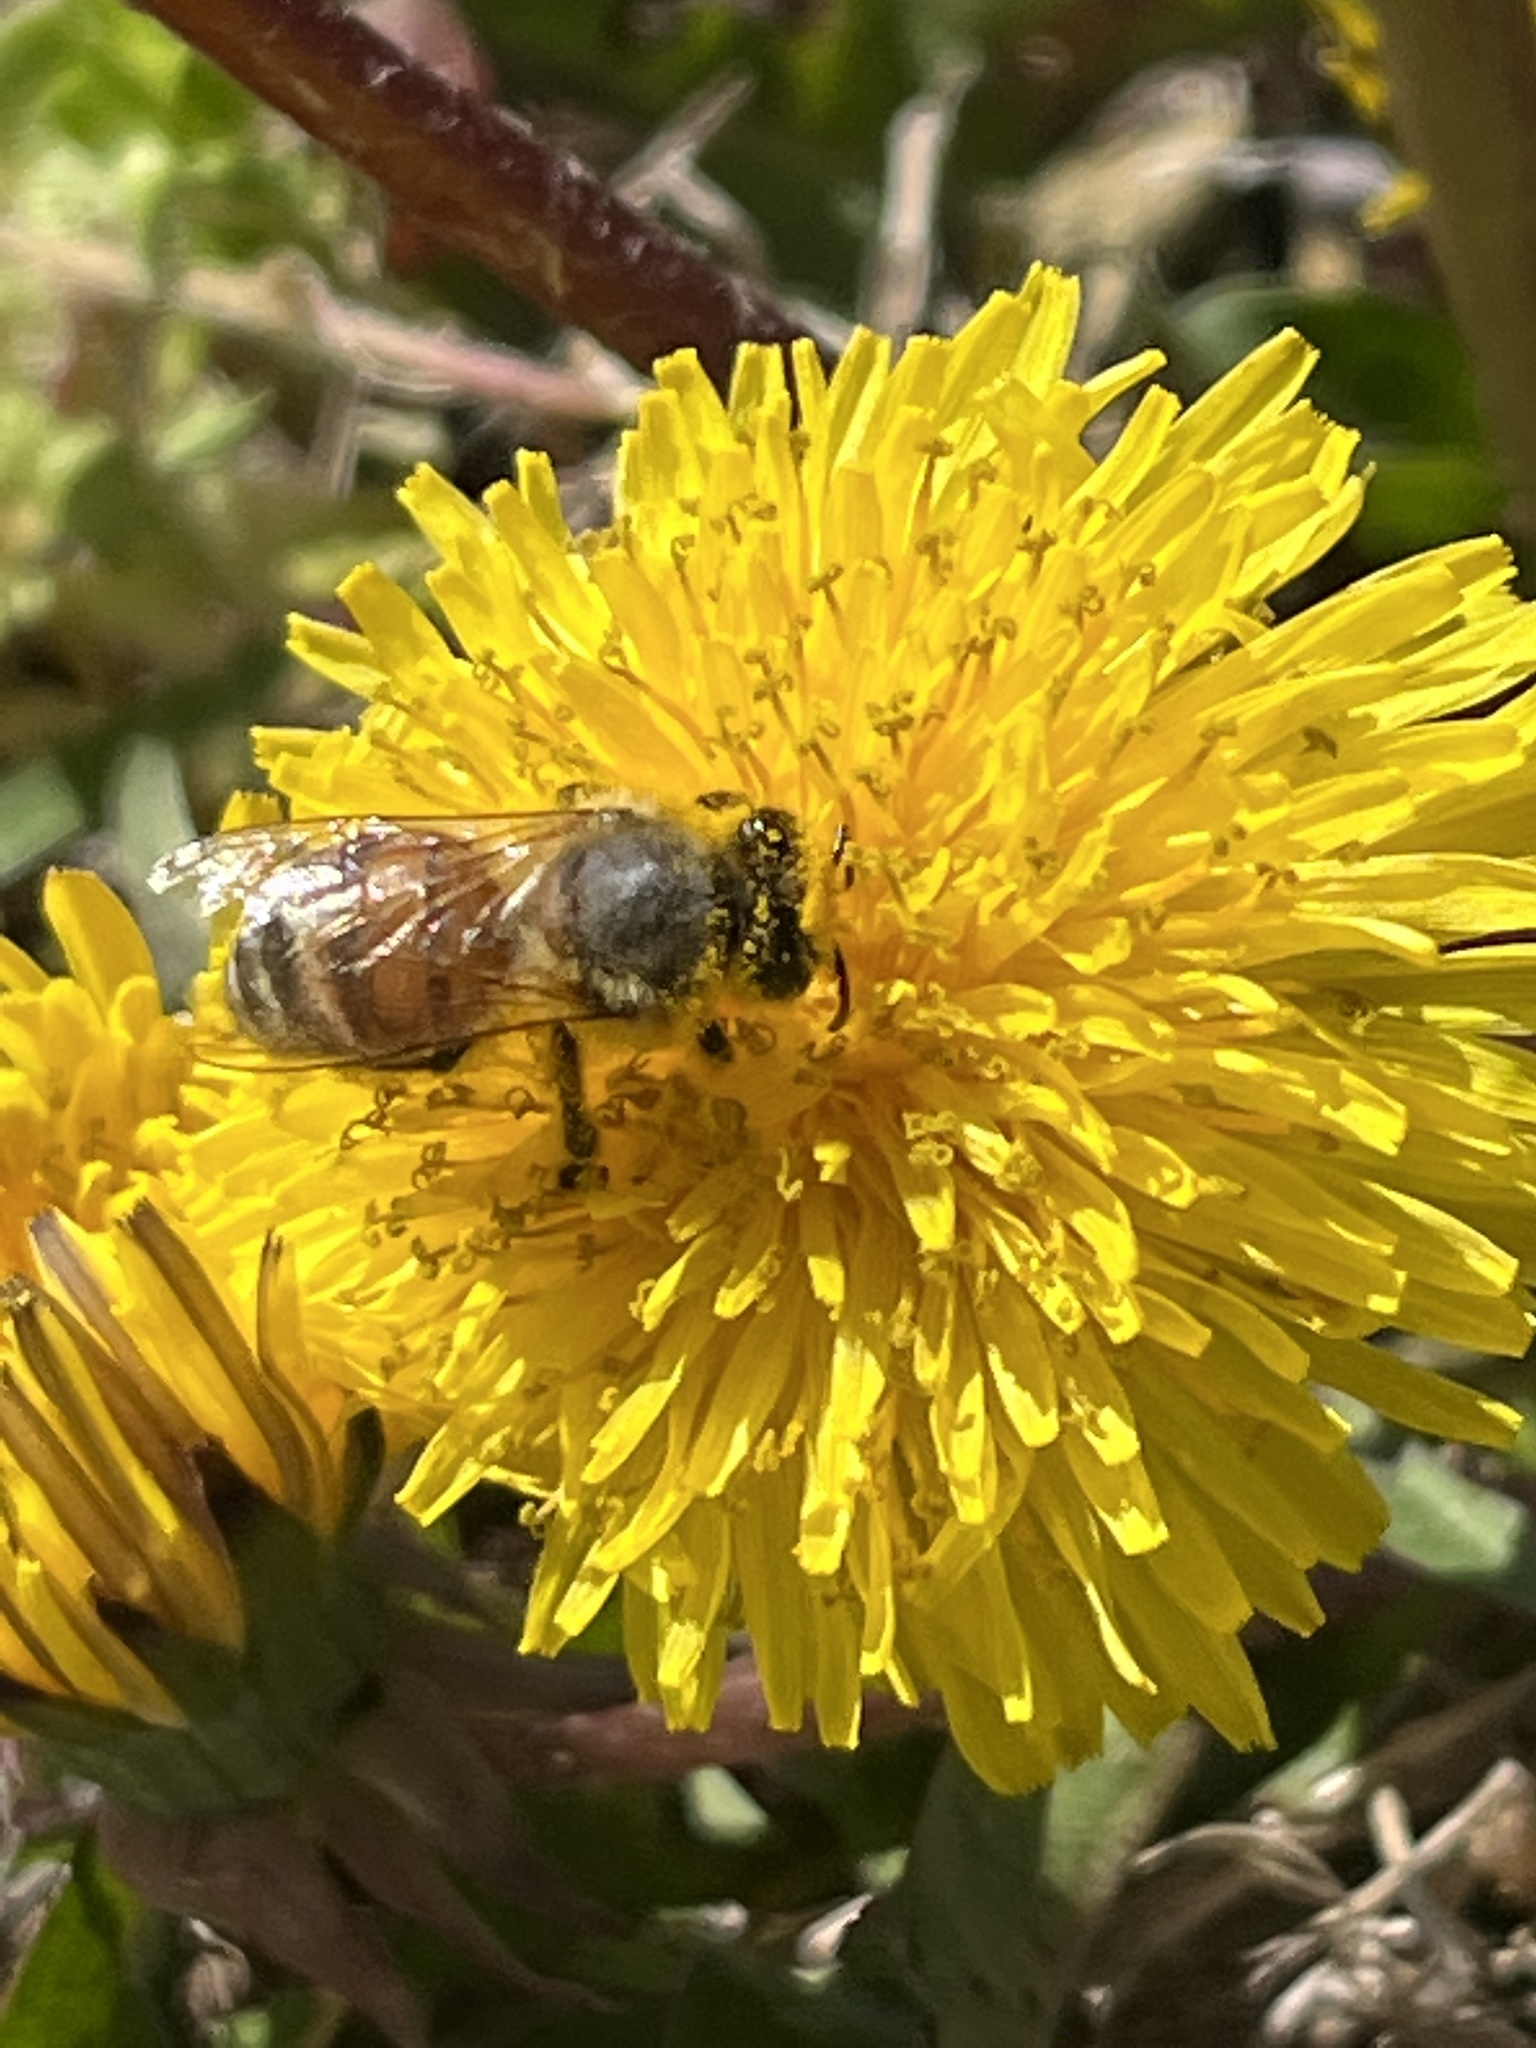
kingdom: Animalia
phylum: Arthropoda
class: Insecta
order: Hymenoptera
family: Apidae
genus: Apis
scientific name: Apis mellifera
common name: Honey bee
